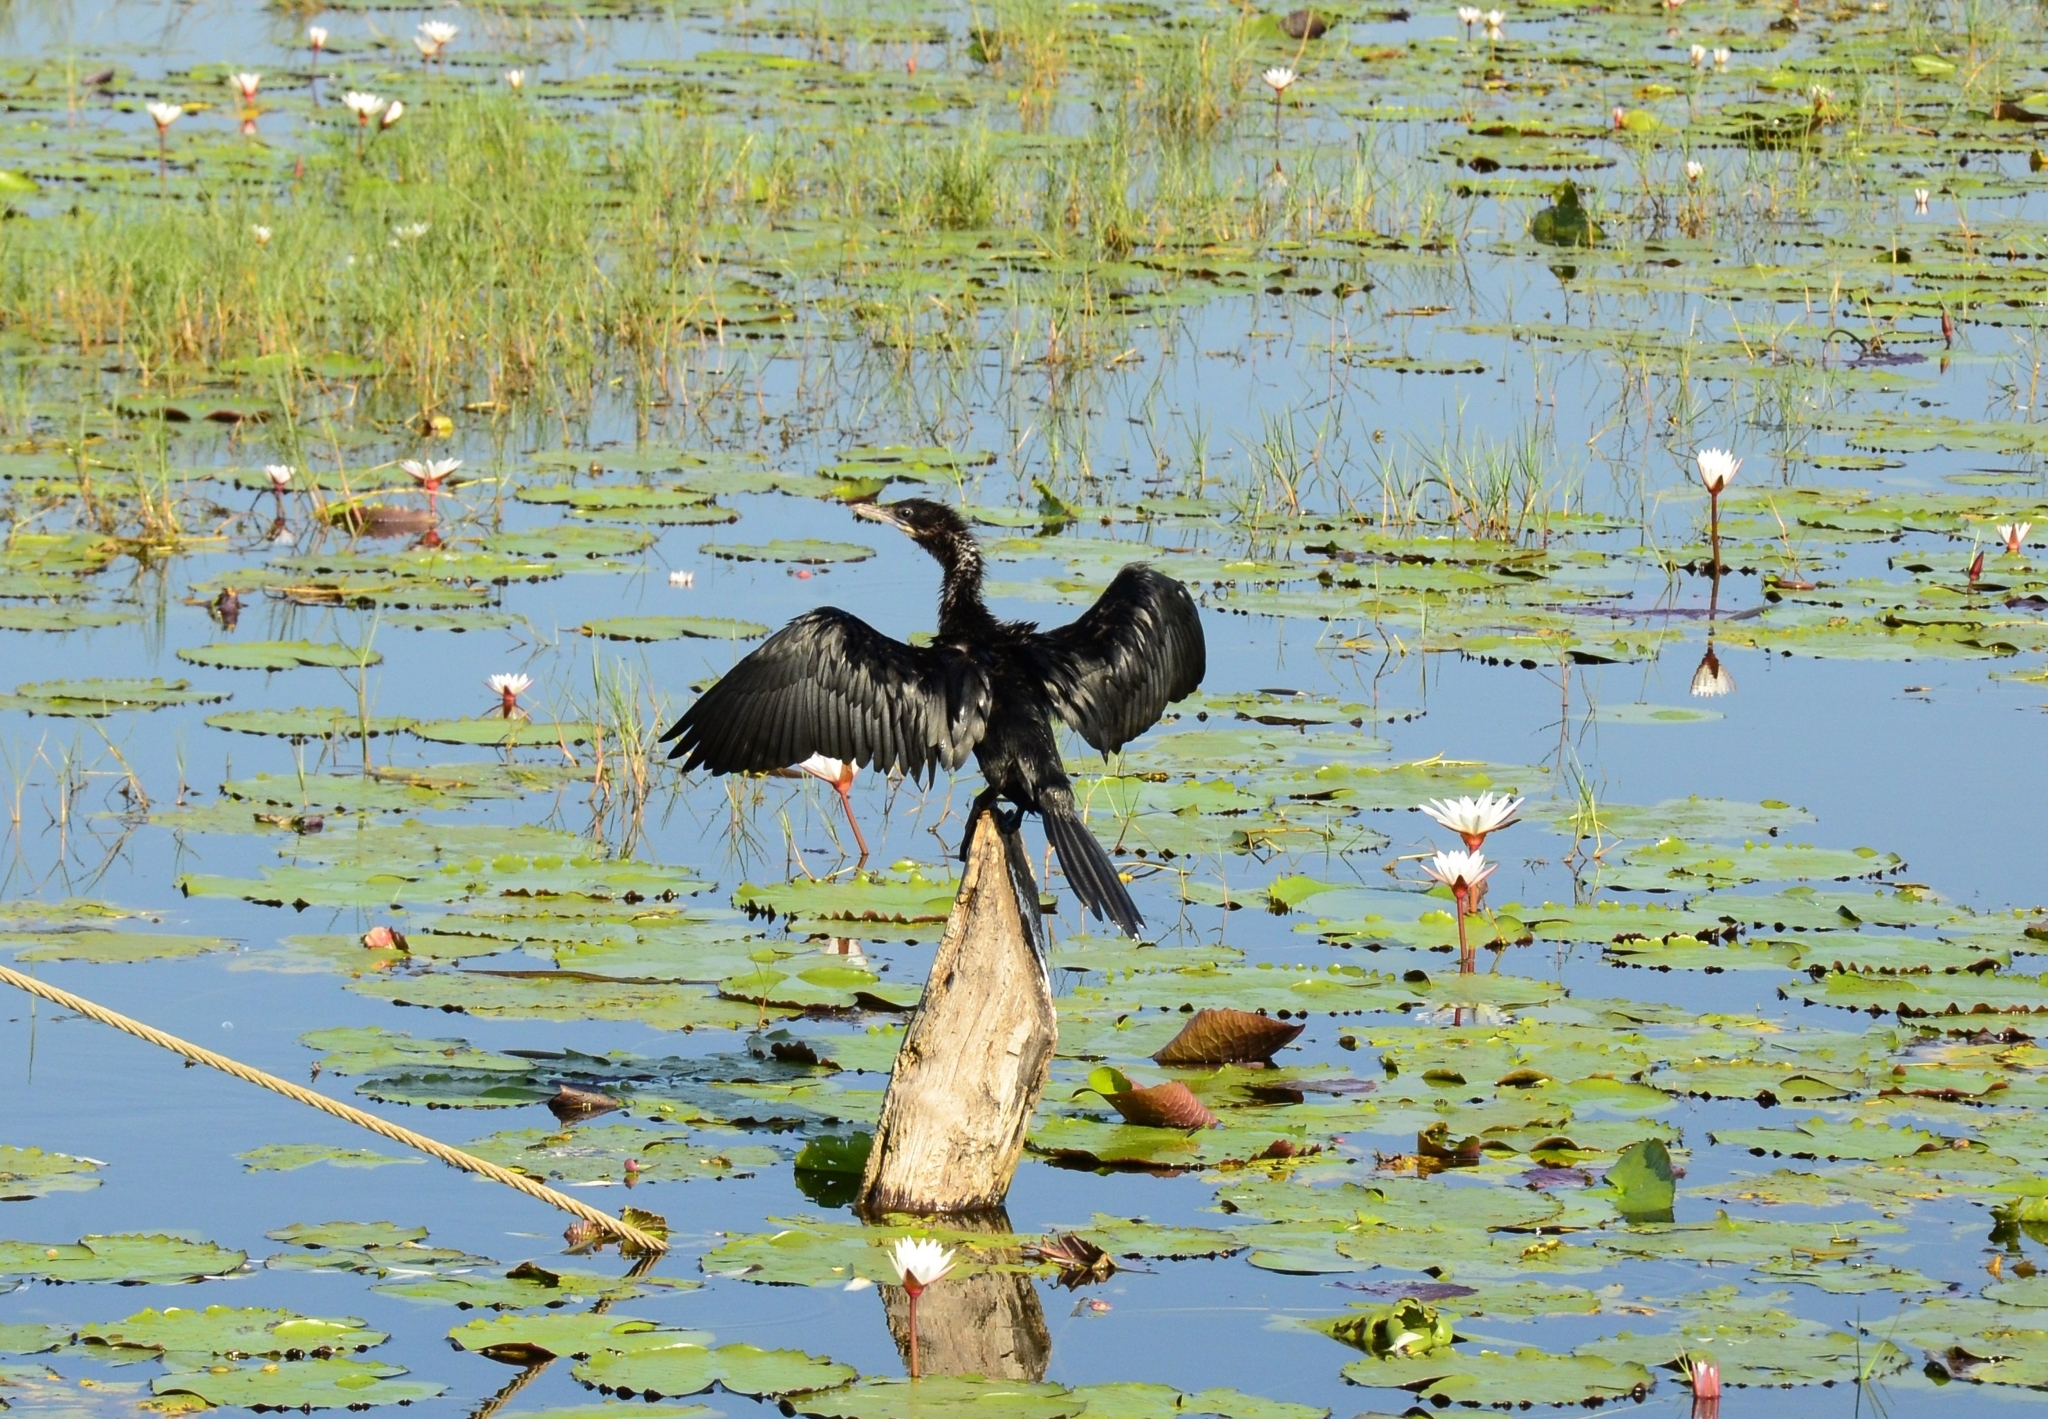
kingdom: Animalia
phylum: Chordata
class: Aves
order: Suliformes
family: Phalacrocoracidae
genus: Microcarbo
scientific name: Microcarbo niger
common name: Little cormorant
